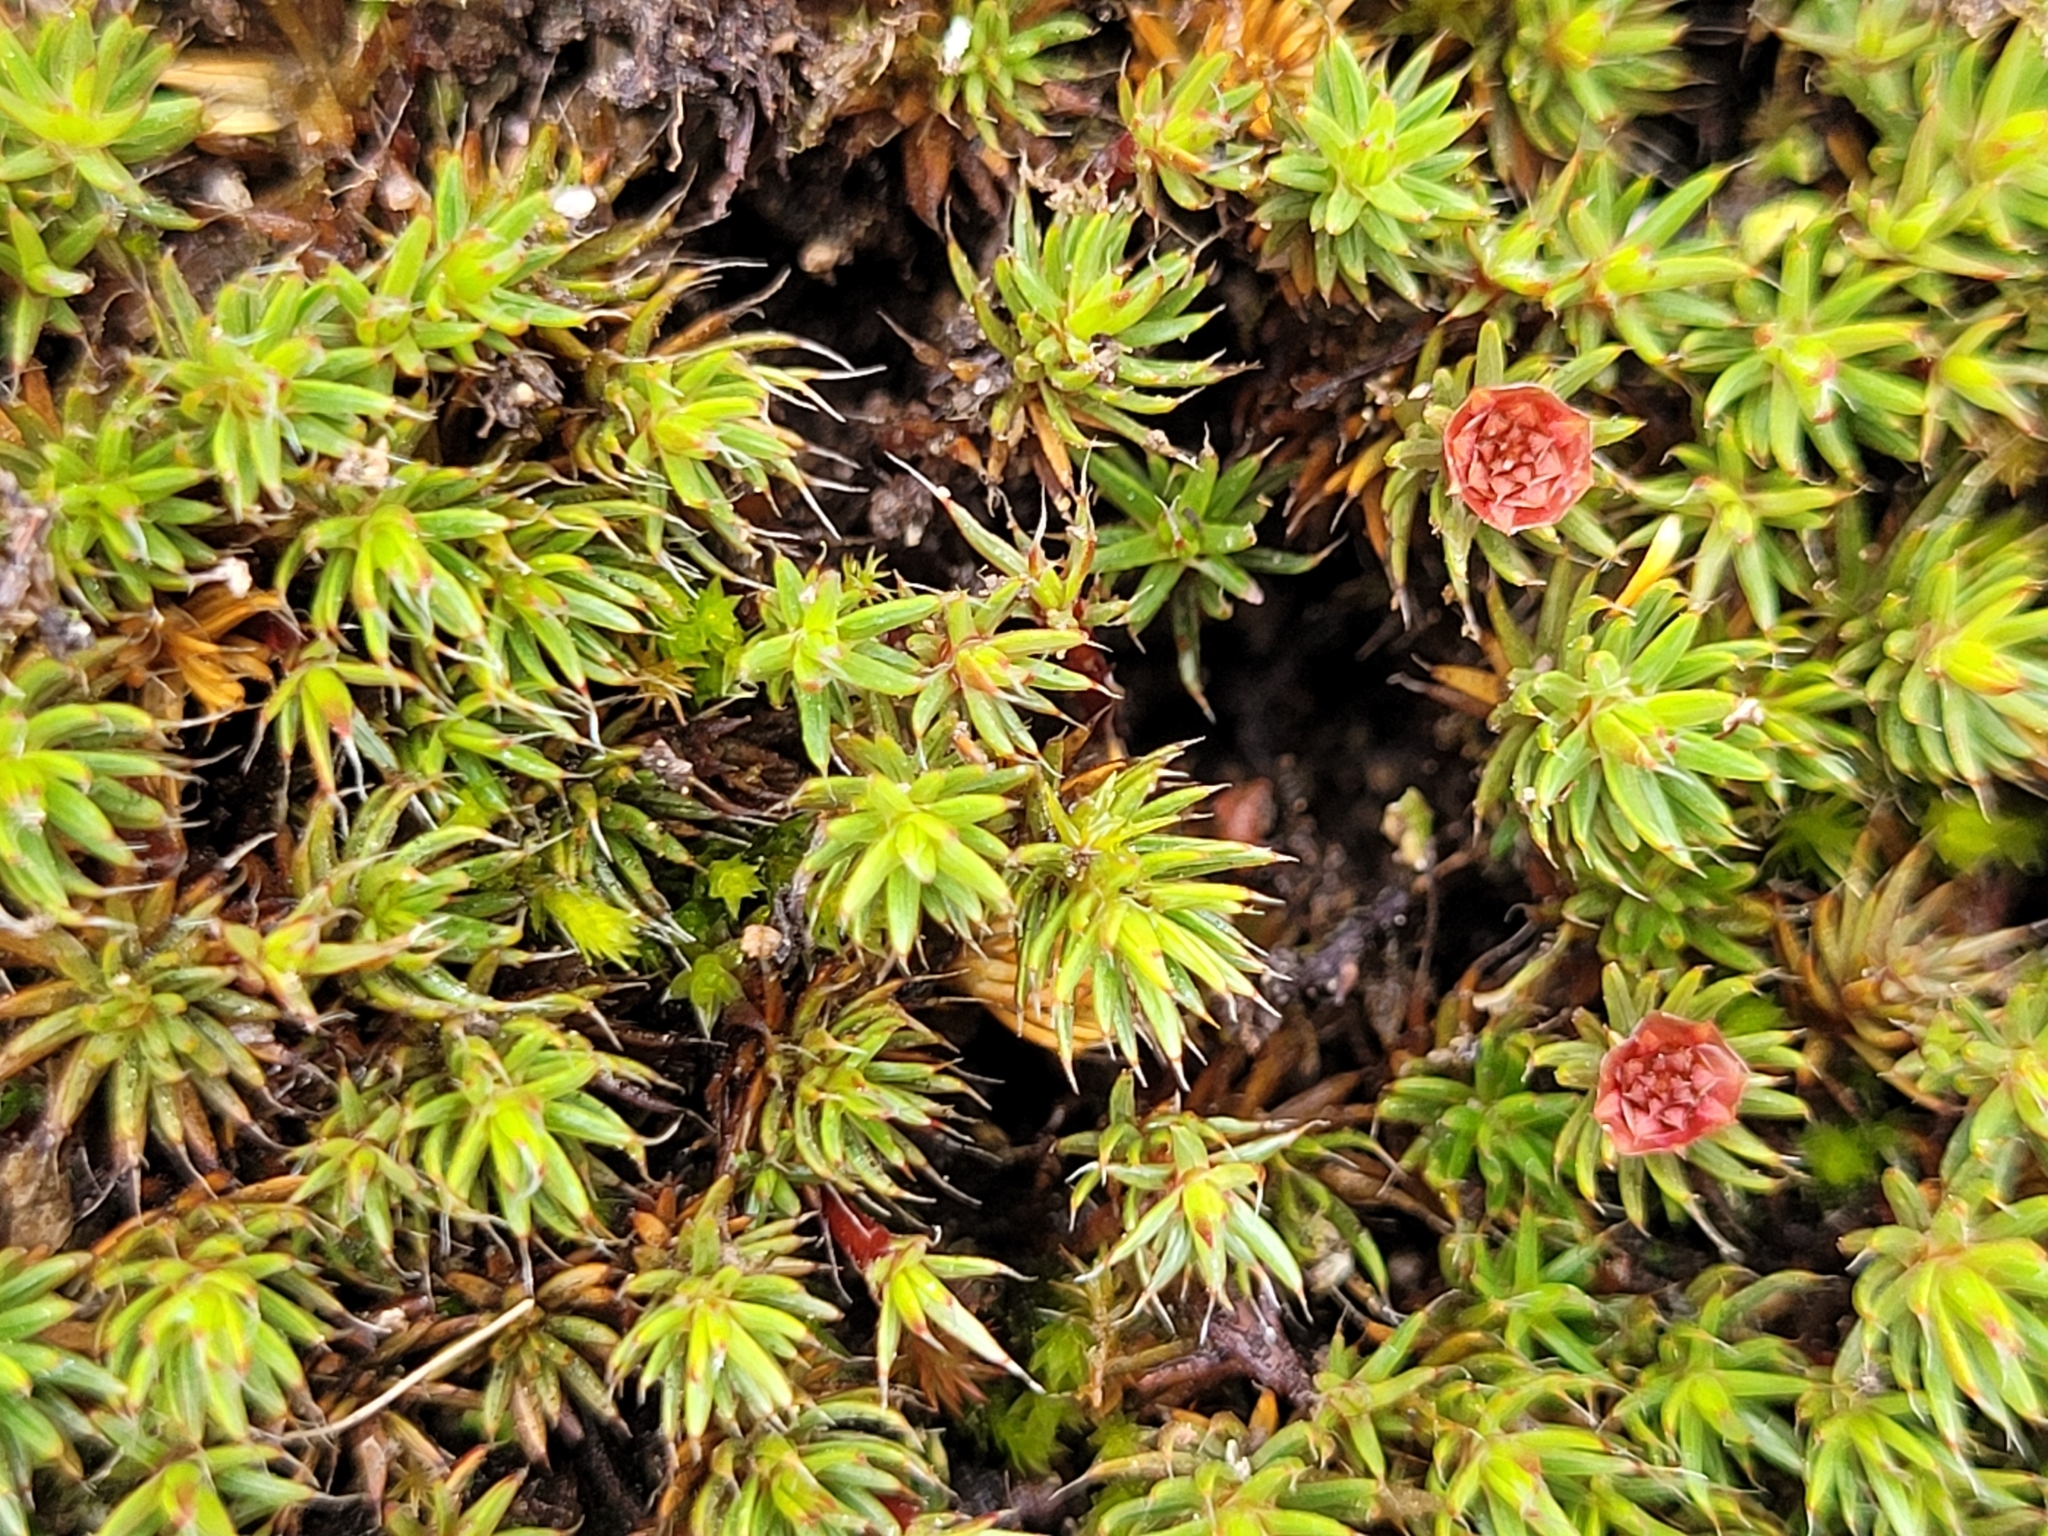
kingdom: Plantae
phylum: Bryophyta
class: Polytrichopsida
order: Polytrichales
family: Polytrichaceae
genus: Polytrichum
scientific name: Polytrichum piliferum
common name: Bristly haircap
